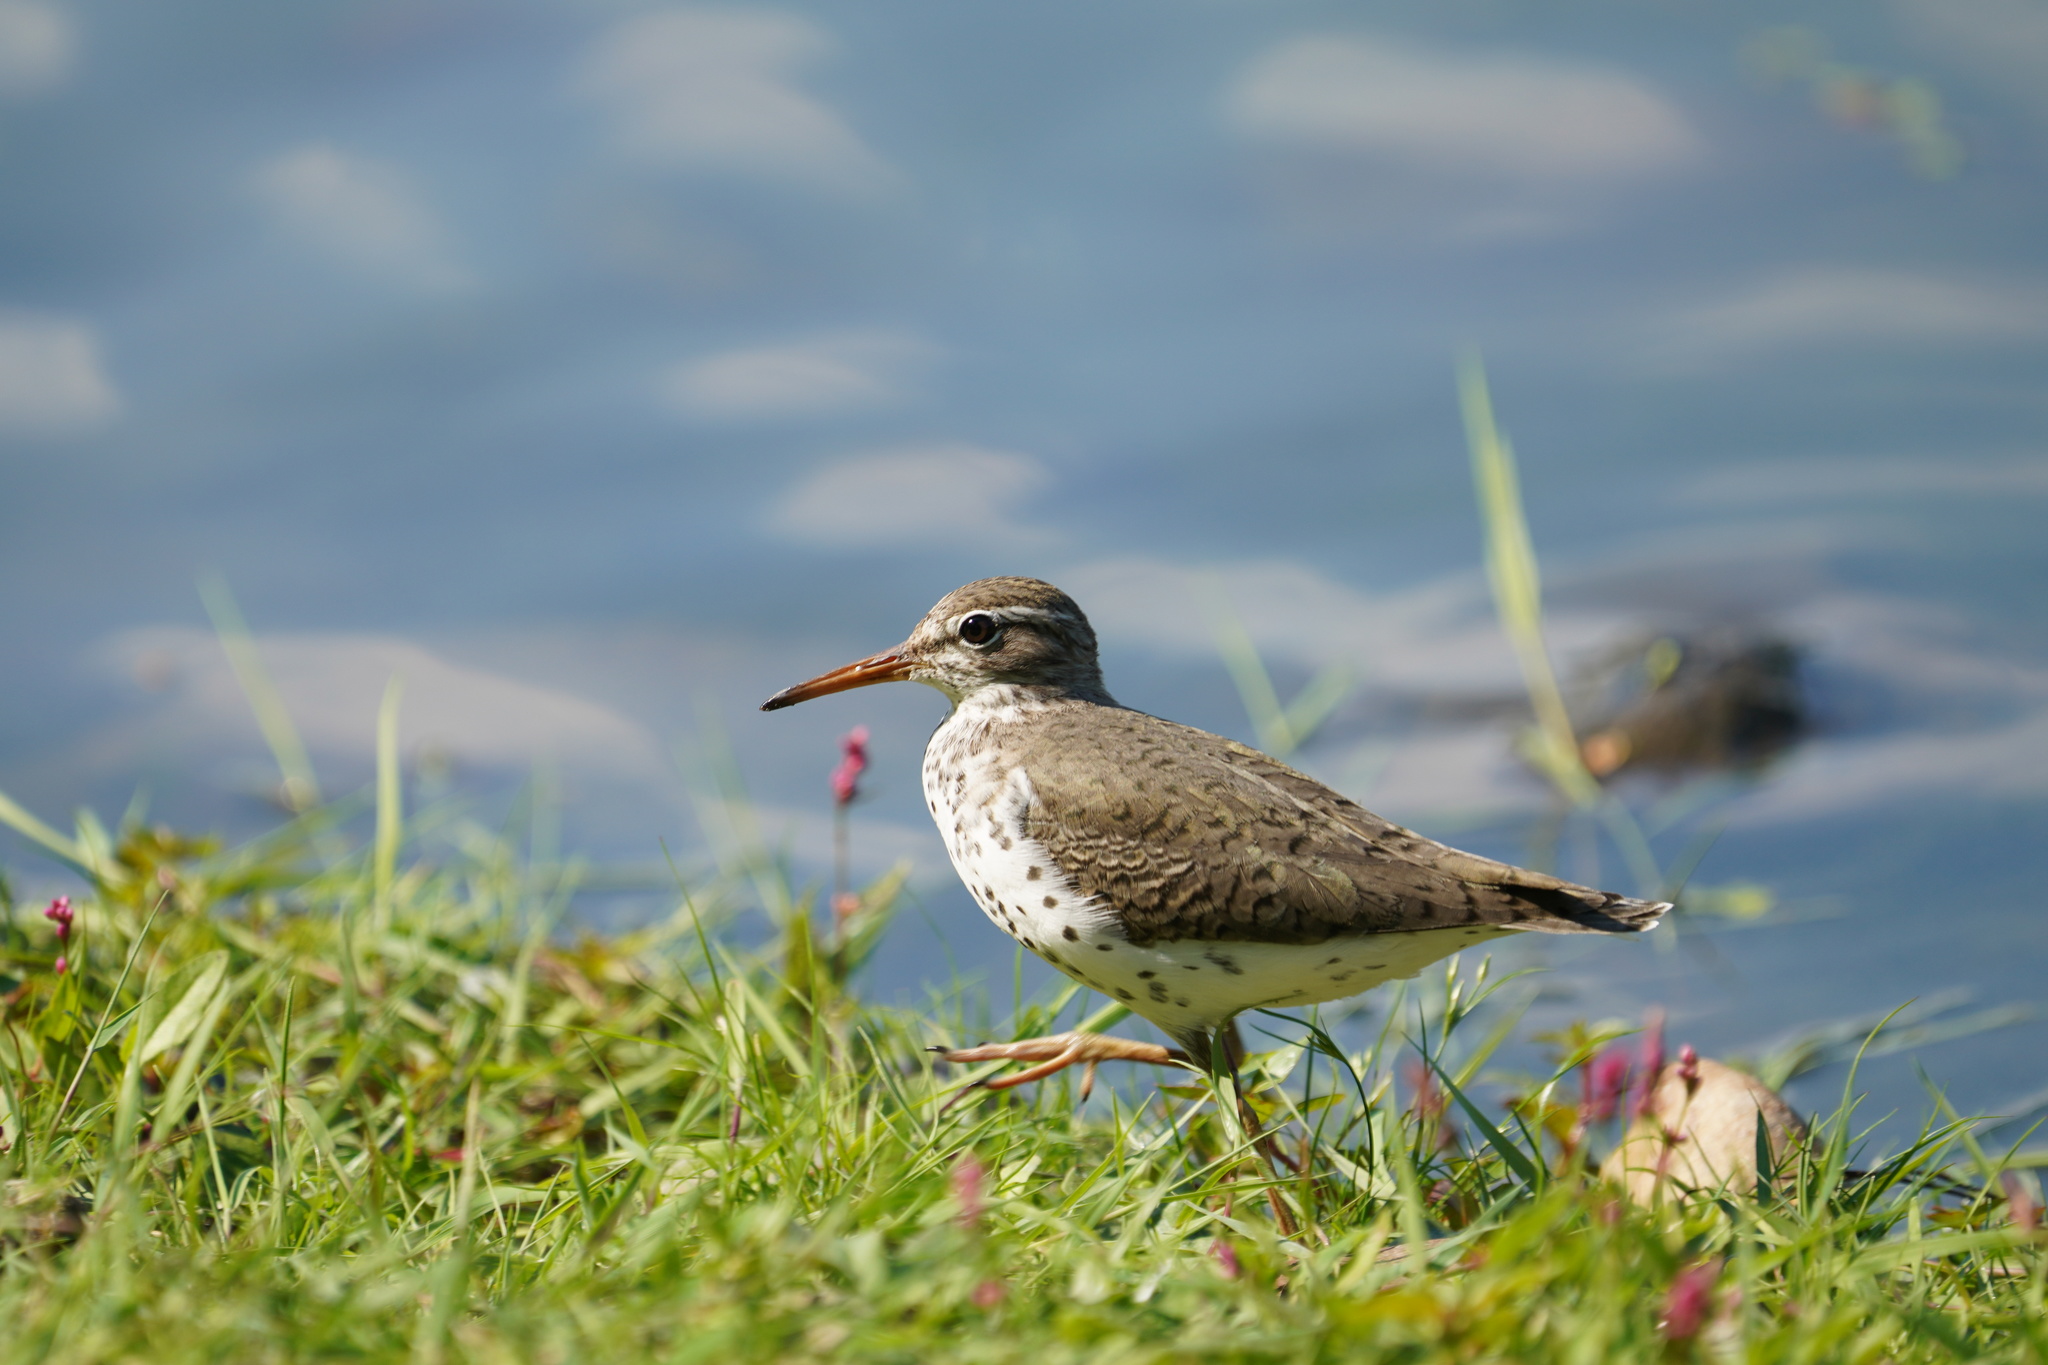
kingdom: Animalia
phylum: Chordata
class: Aves
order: Charadriiformes
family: Scolopacidae
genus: Actitis
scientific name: Actitis macularius
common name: Spotted sandpiper
